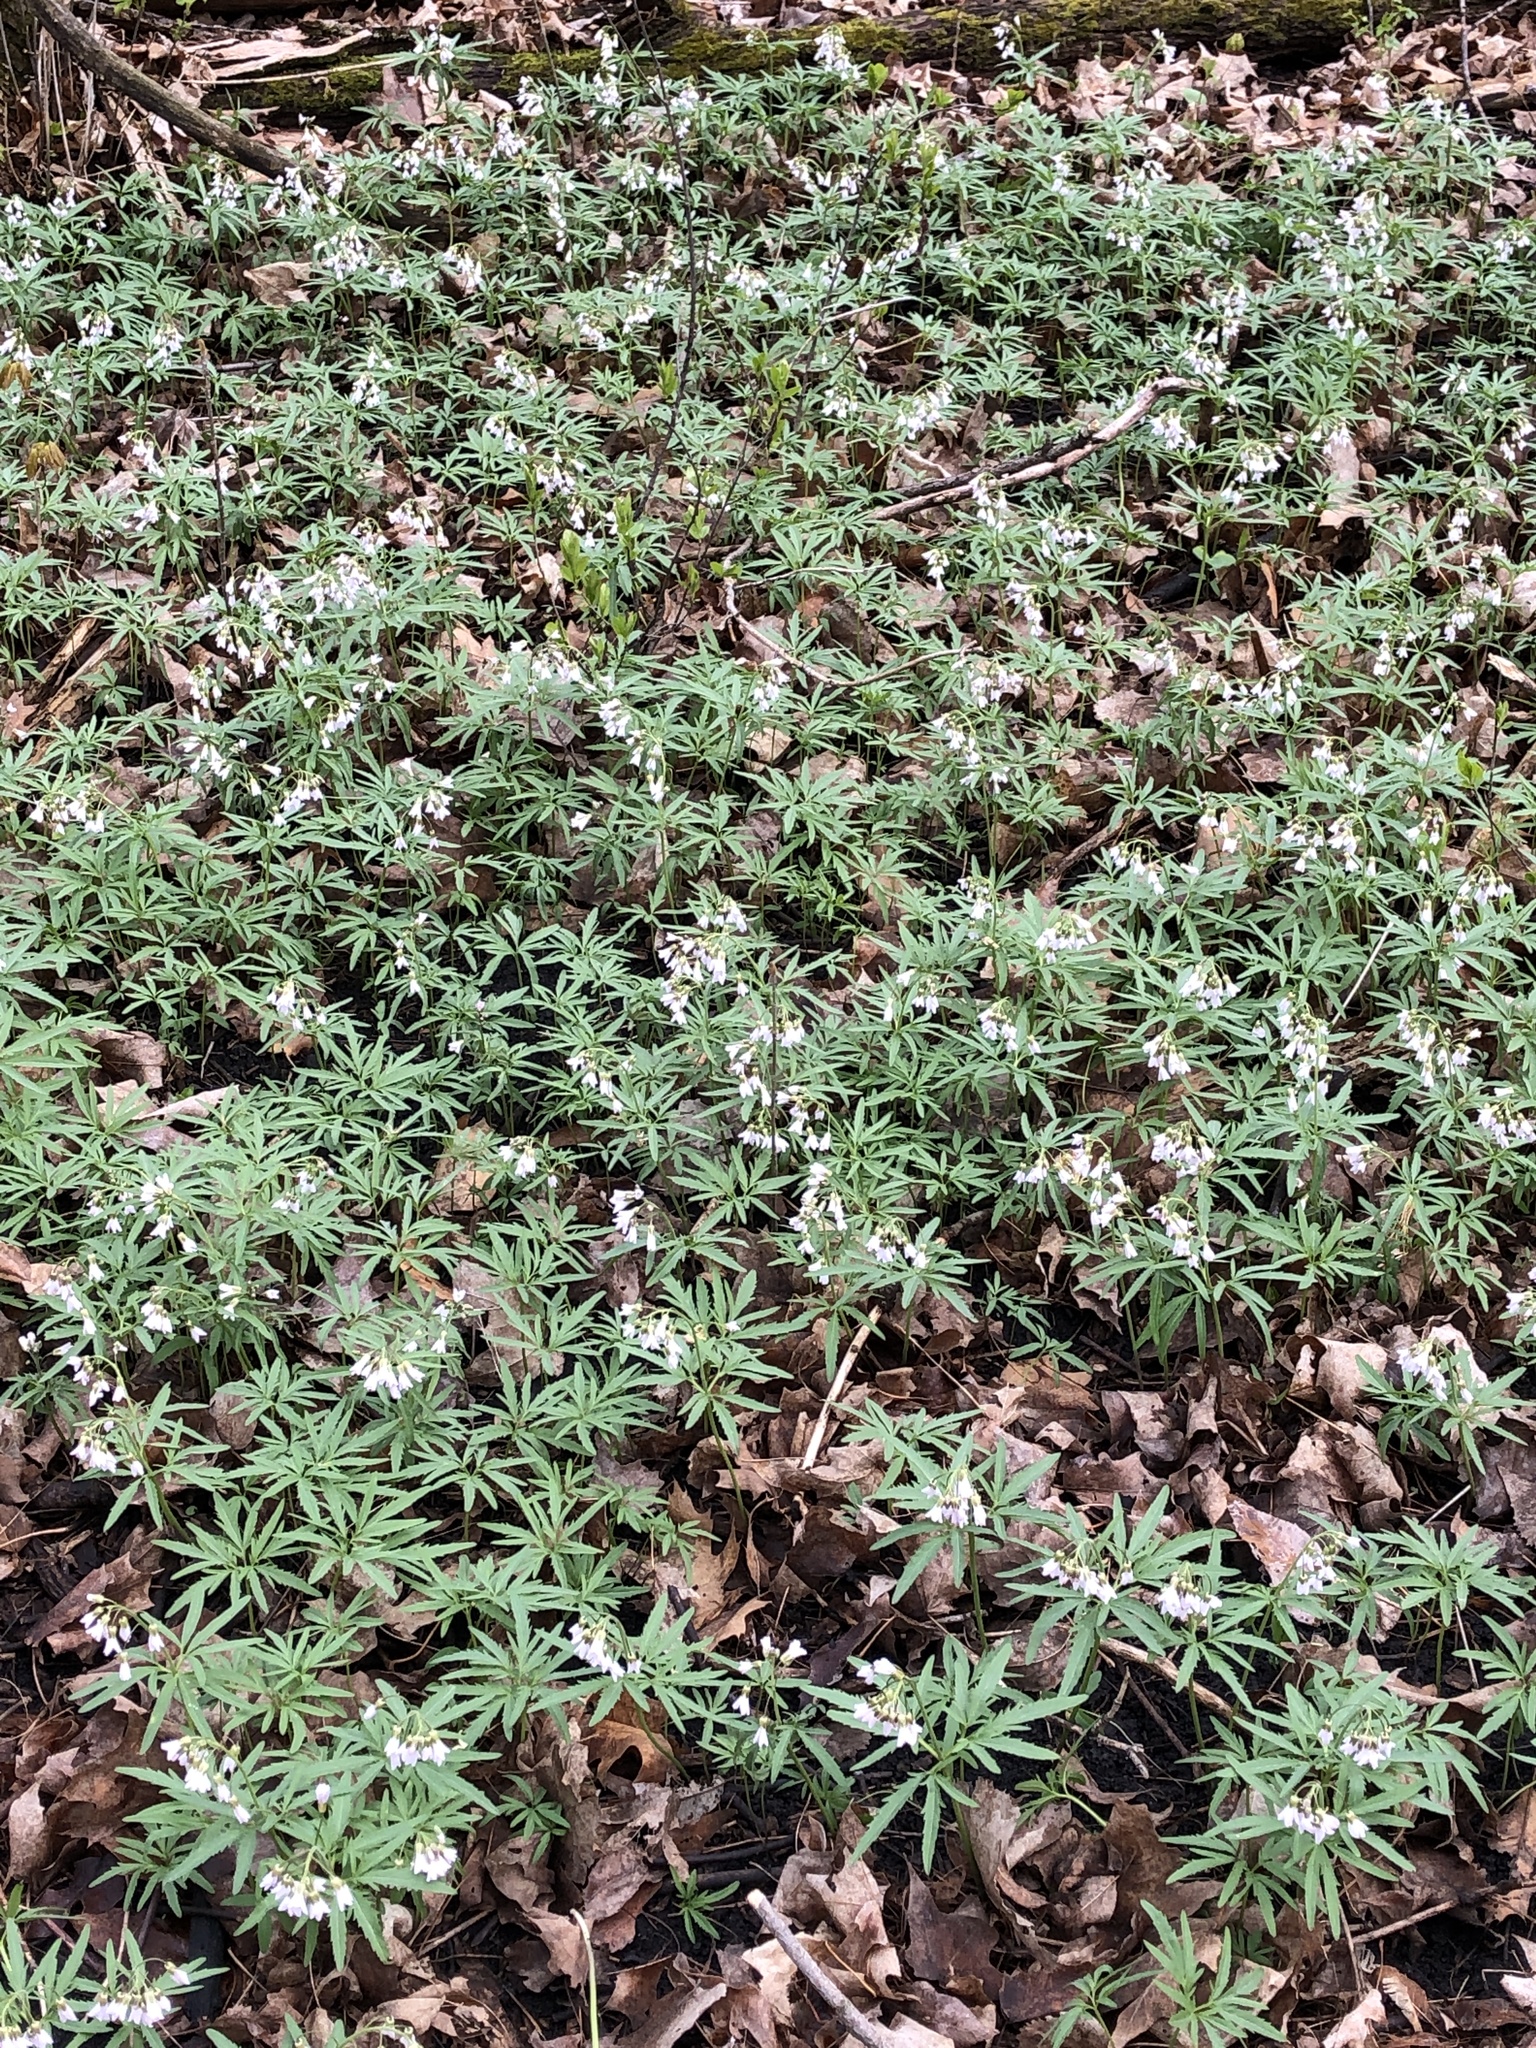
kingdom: Plantae
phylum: Tracheophyta
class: Magnoliopsida
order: Brassicales
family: Brassicaceae
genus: Cardamine
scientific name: Cardamine concatenata
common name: Cut-leaf toothcup
